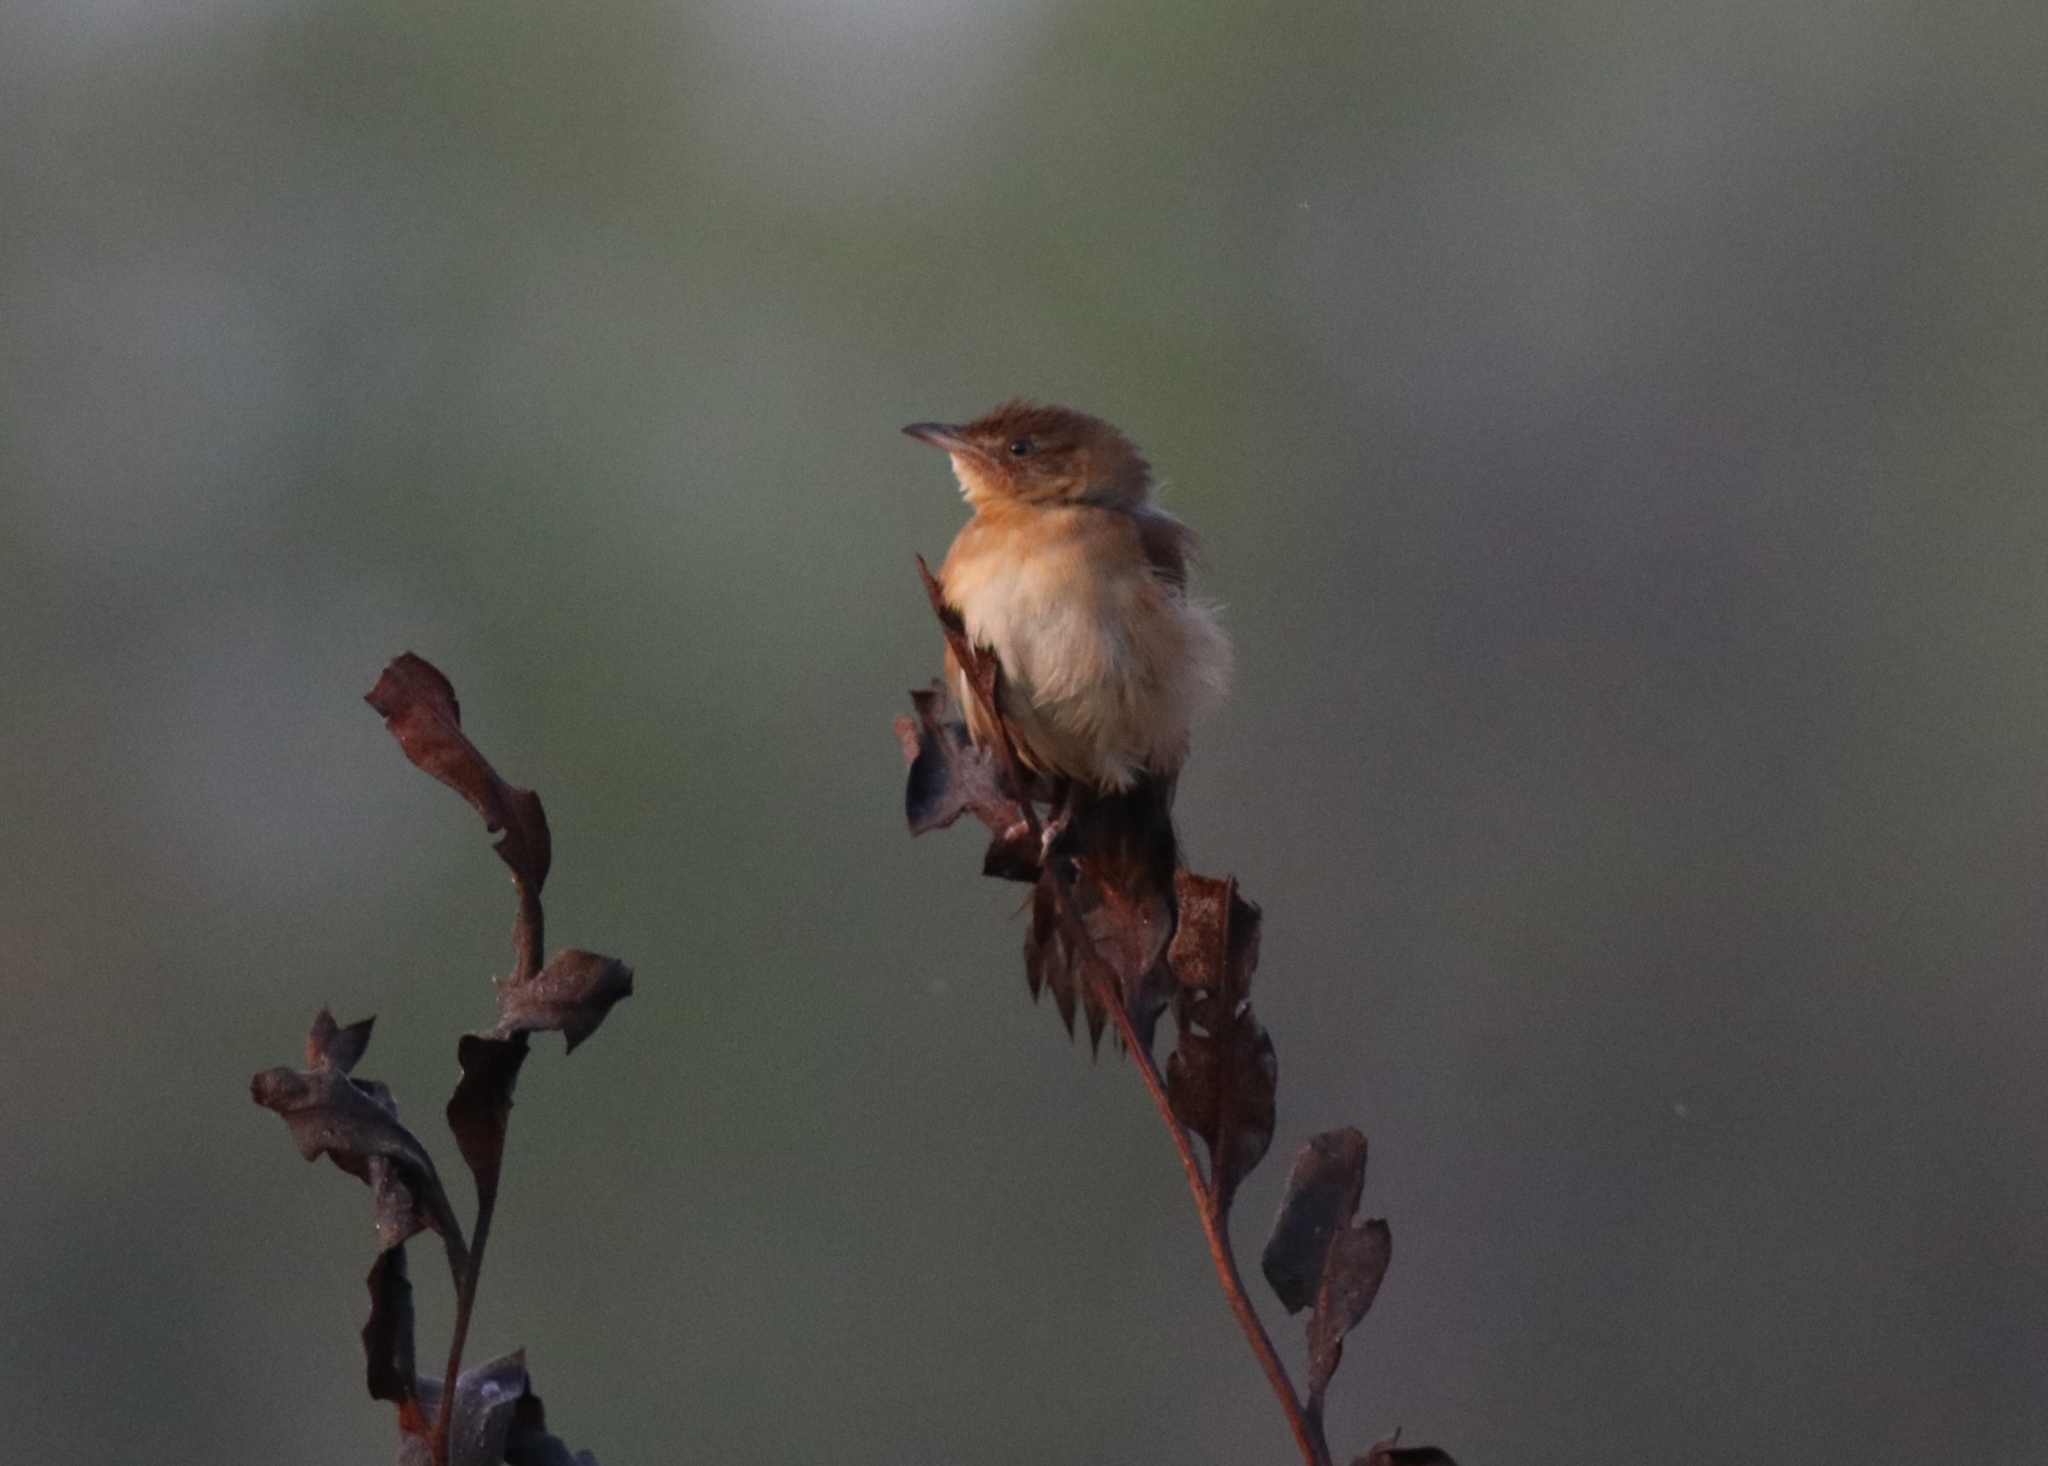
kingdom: Animalia
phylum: Chordata
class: Aves
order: Passeriformes
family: Locustellidae
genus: Schoenicola
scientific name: Schoenicola platyurus
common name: Broad-tailed grassbird
